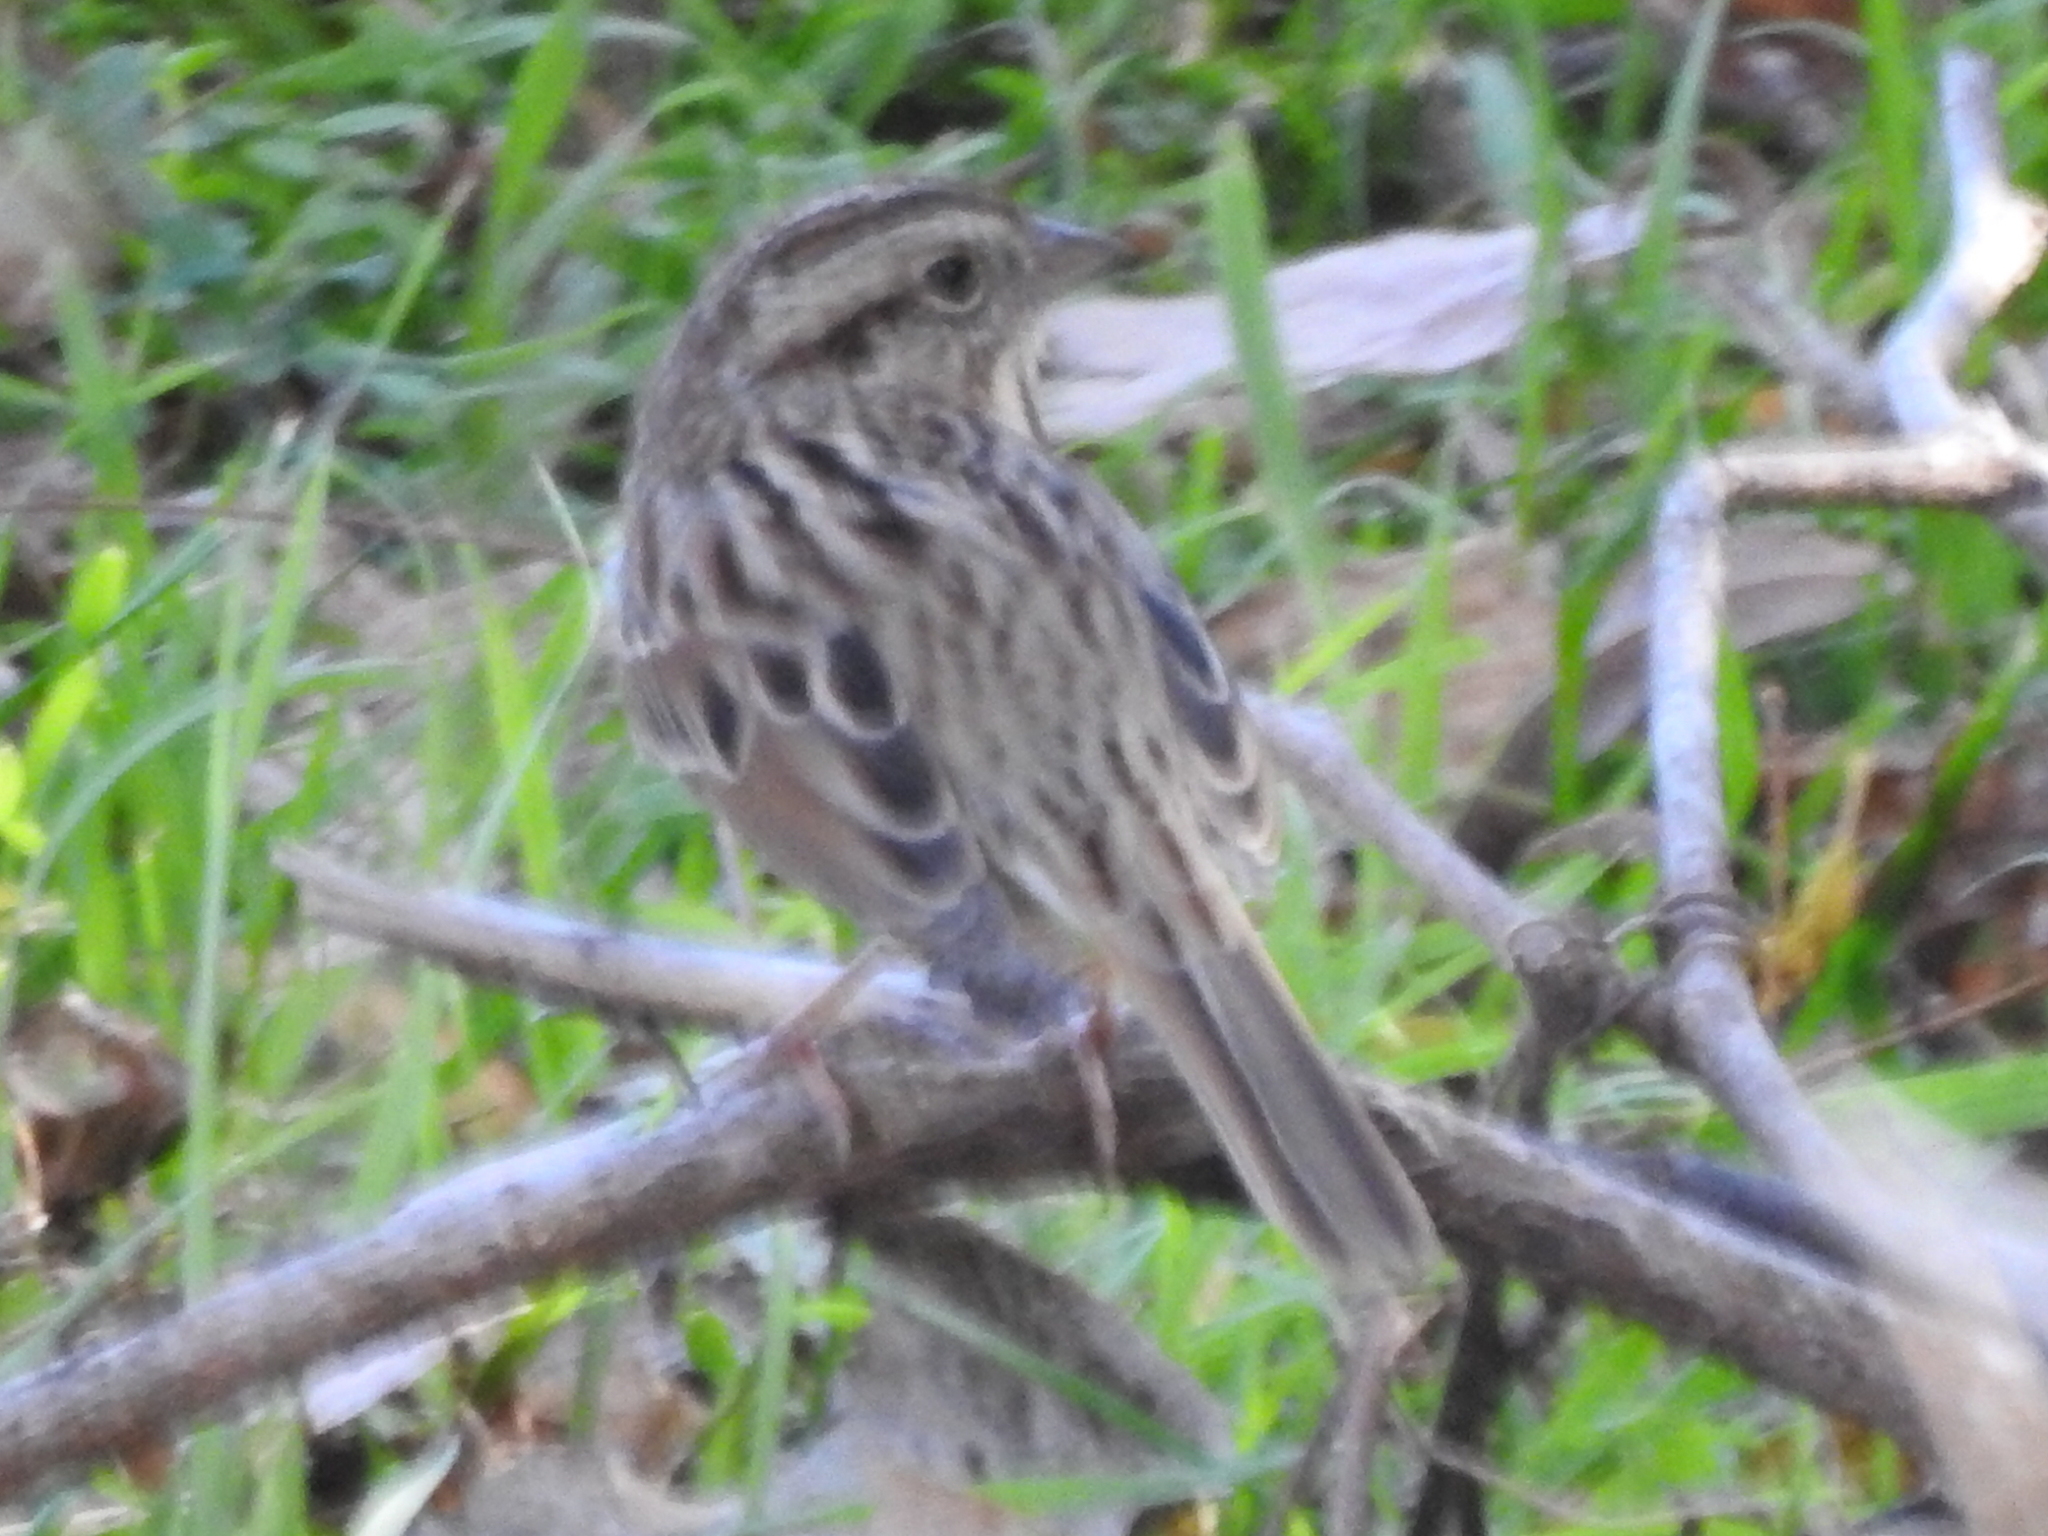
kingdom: Animalia
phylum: Chordata
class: Aves
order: Passeriformes
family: Passerellidae
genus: Melospiza
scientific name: Melospiza melodia
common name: Song sparrow
